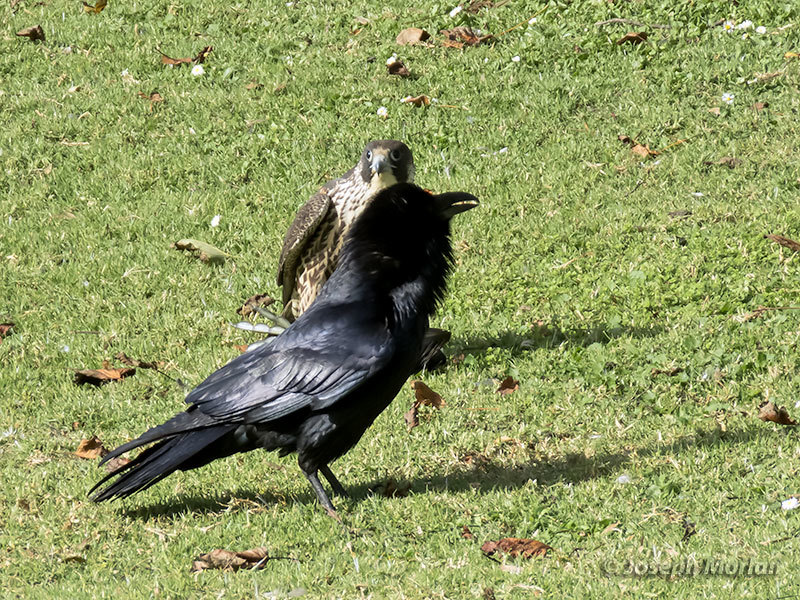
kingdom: Animalia
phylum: Chordata
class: Aves
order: Passeriformes
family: Corvidae
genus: Corvus
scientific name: Corvus corax
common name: Common raven
